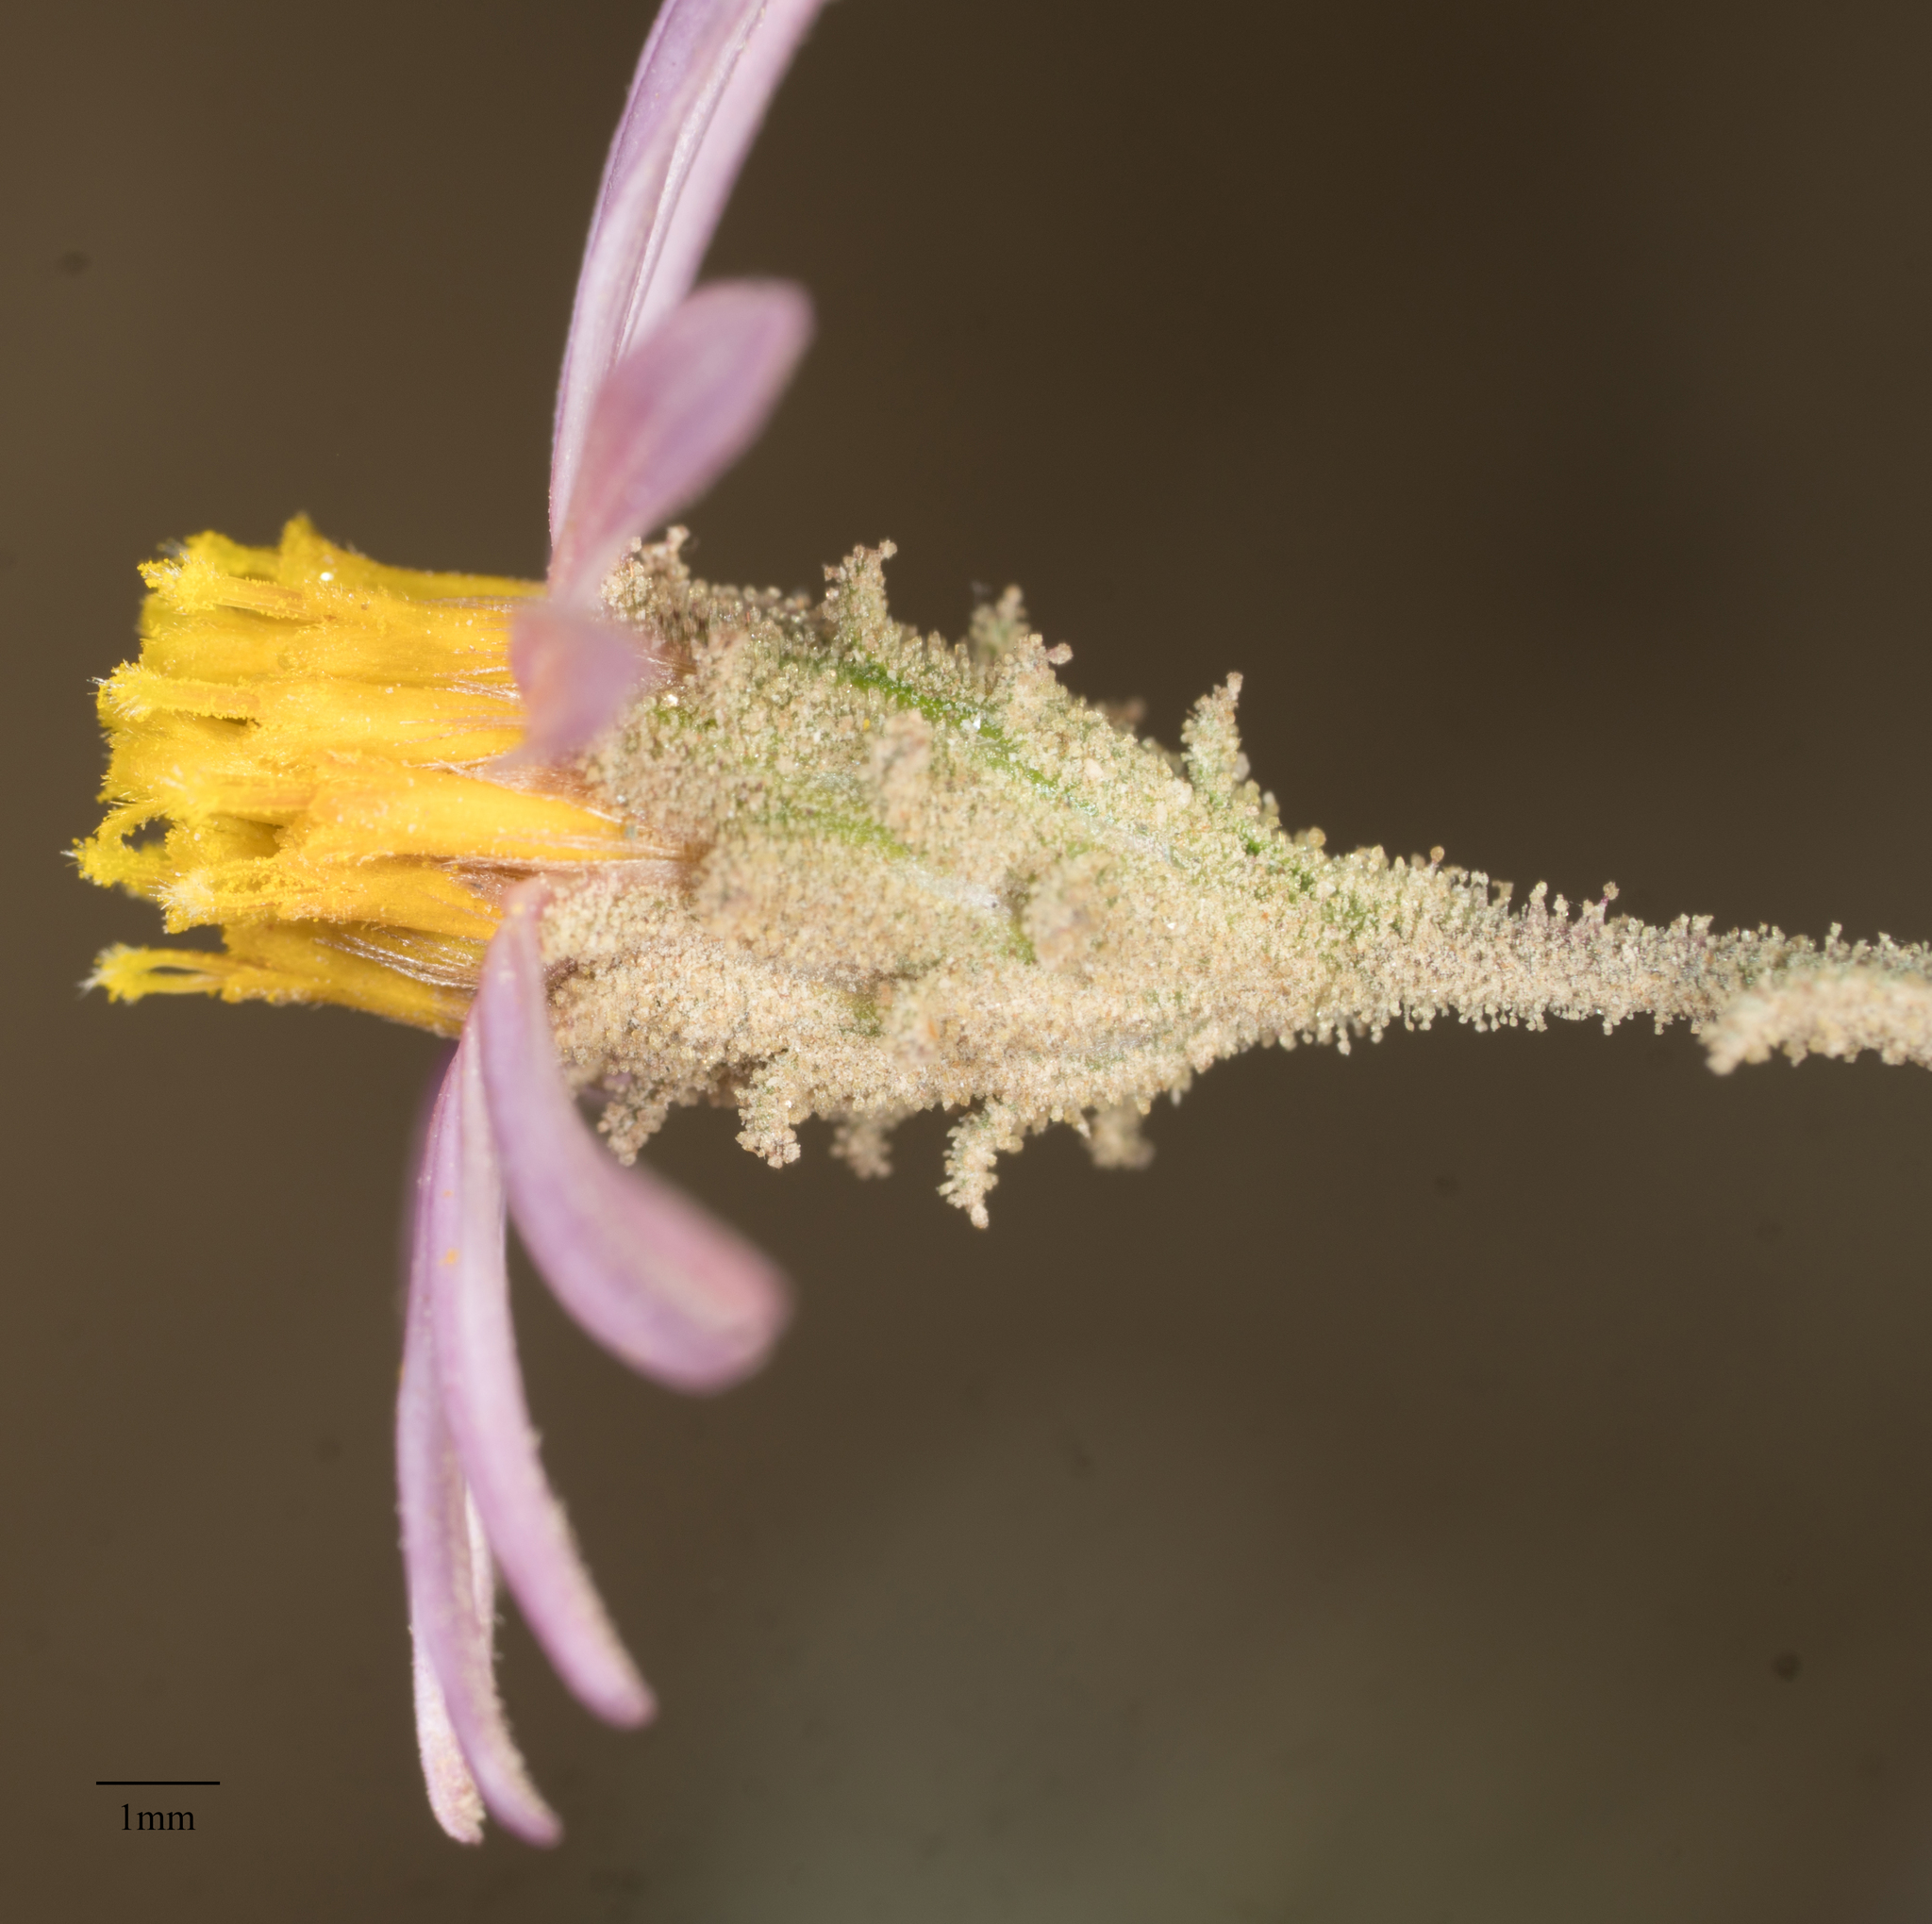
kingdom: Plantae
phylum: Tracheophyta
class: Magnoliopsida
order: Asterales
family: Asteraceae
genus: Corethrogyne
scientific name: Corethrogyne filaginifolia
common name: Sand-aster
